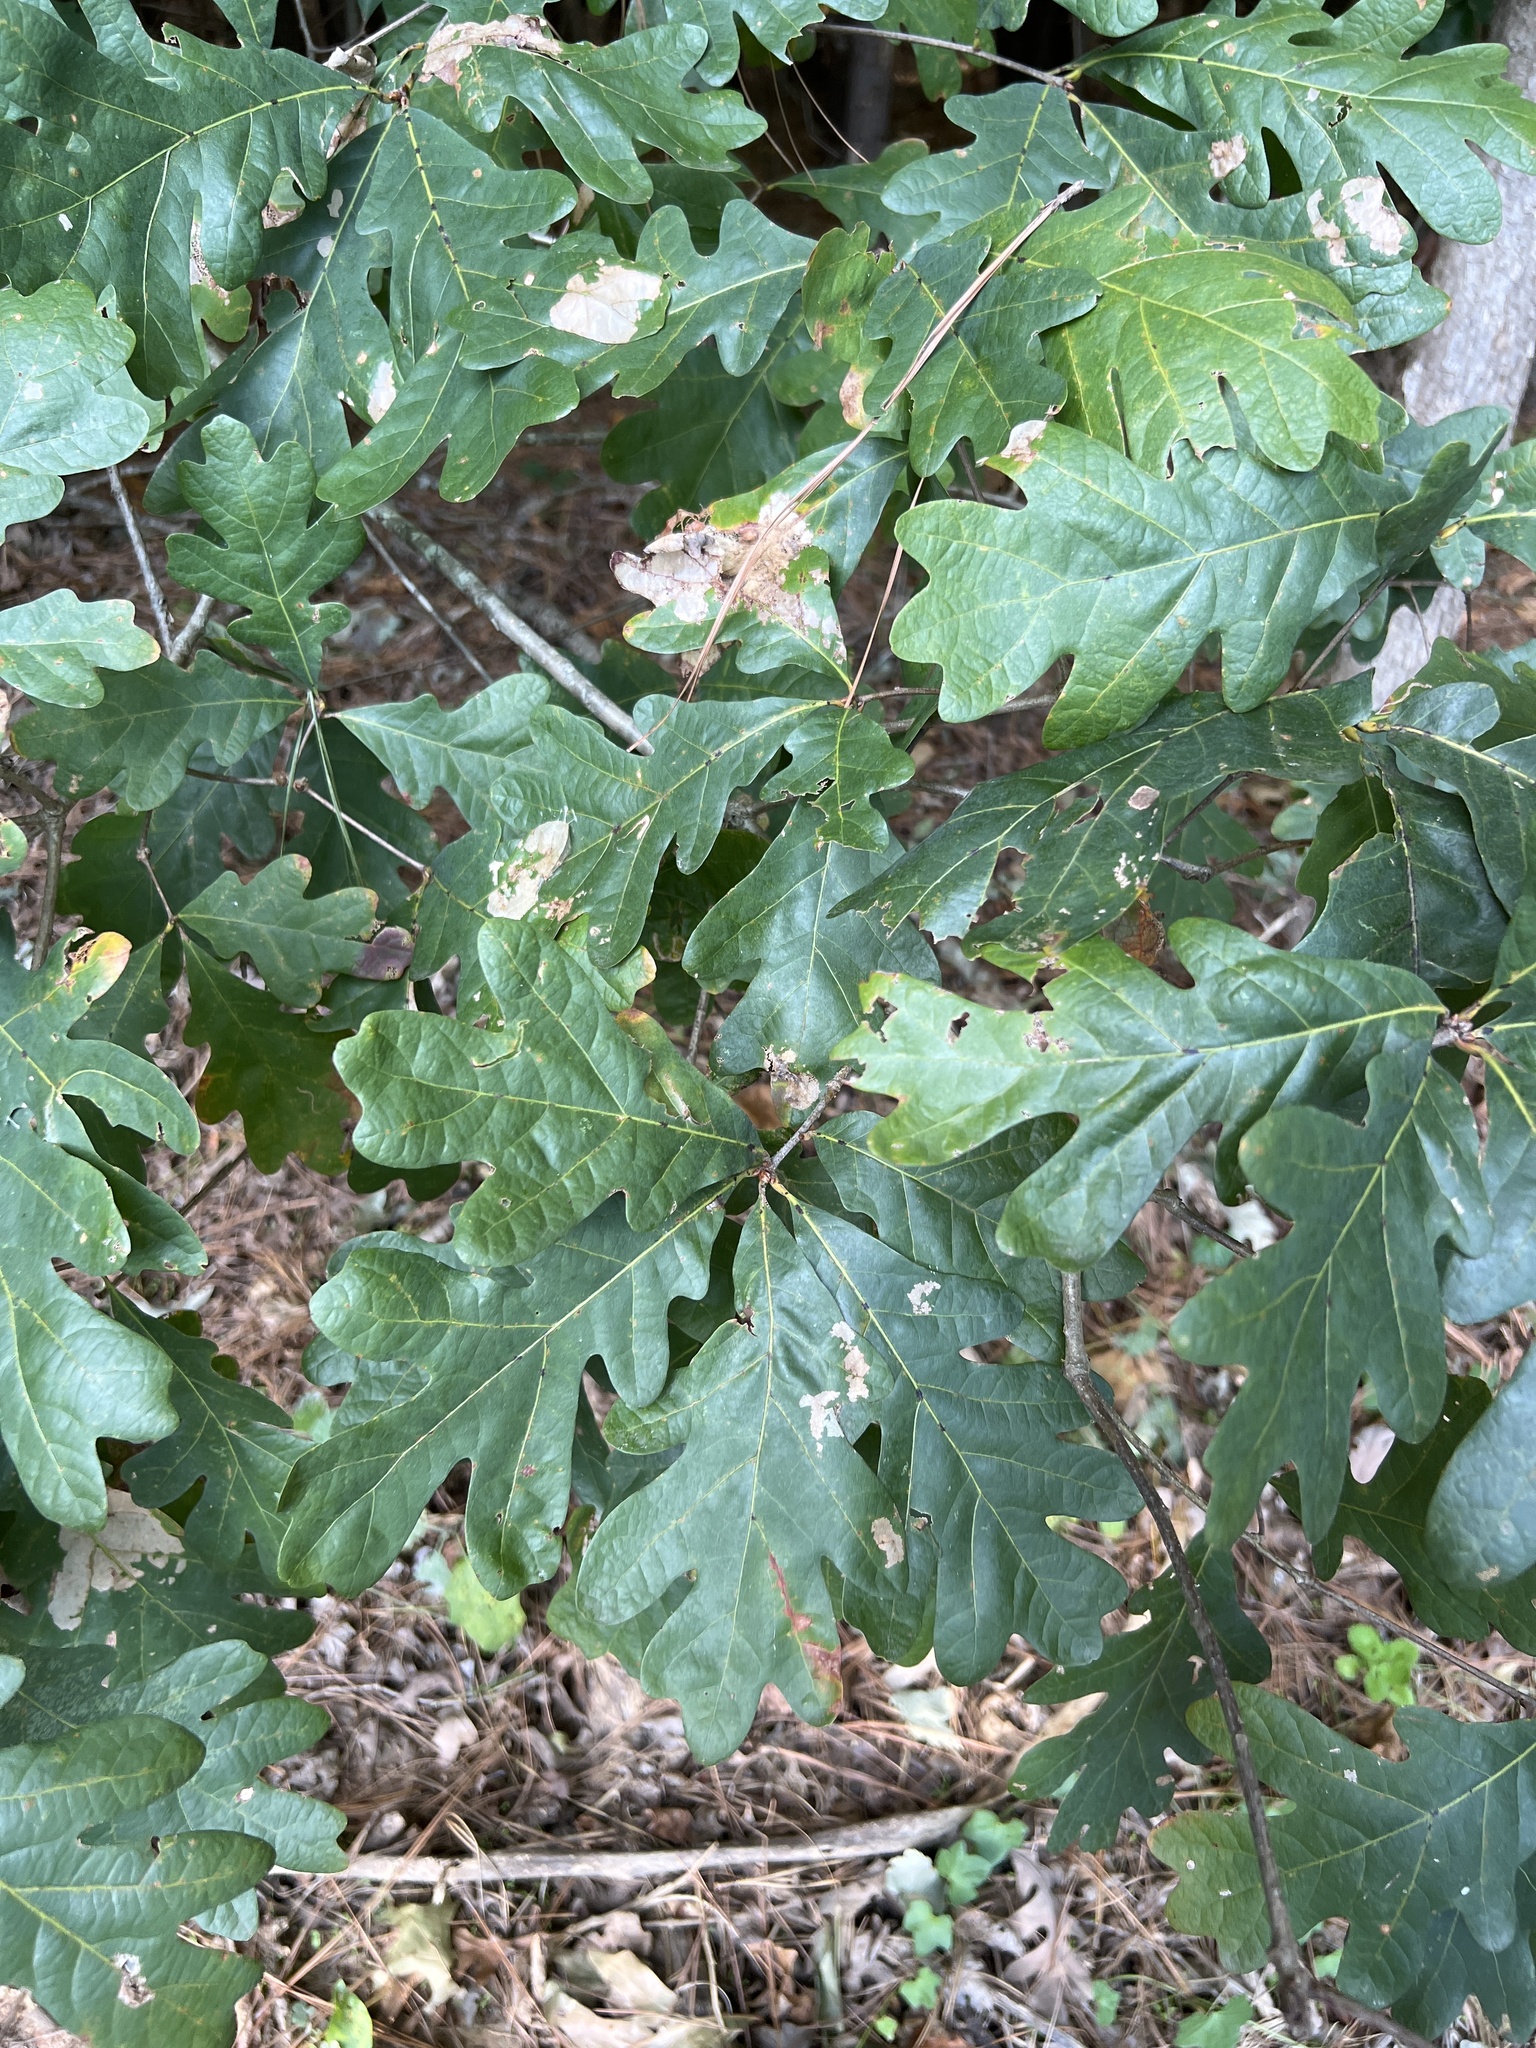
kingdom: Plantae
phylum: Tracheophyta
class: Magnoliopsida
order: Fagales
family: Fagaceae
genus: Quercus
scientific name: Quercus alba
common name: White oak
